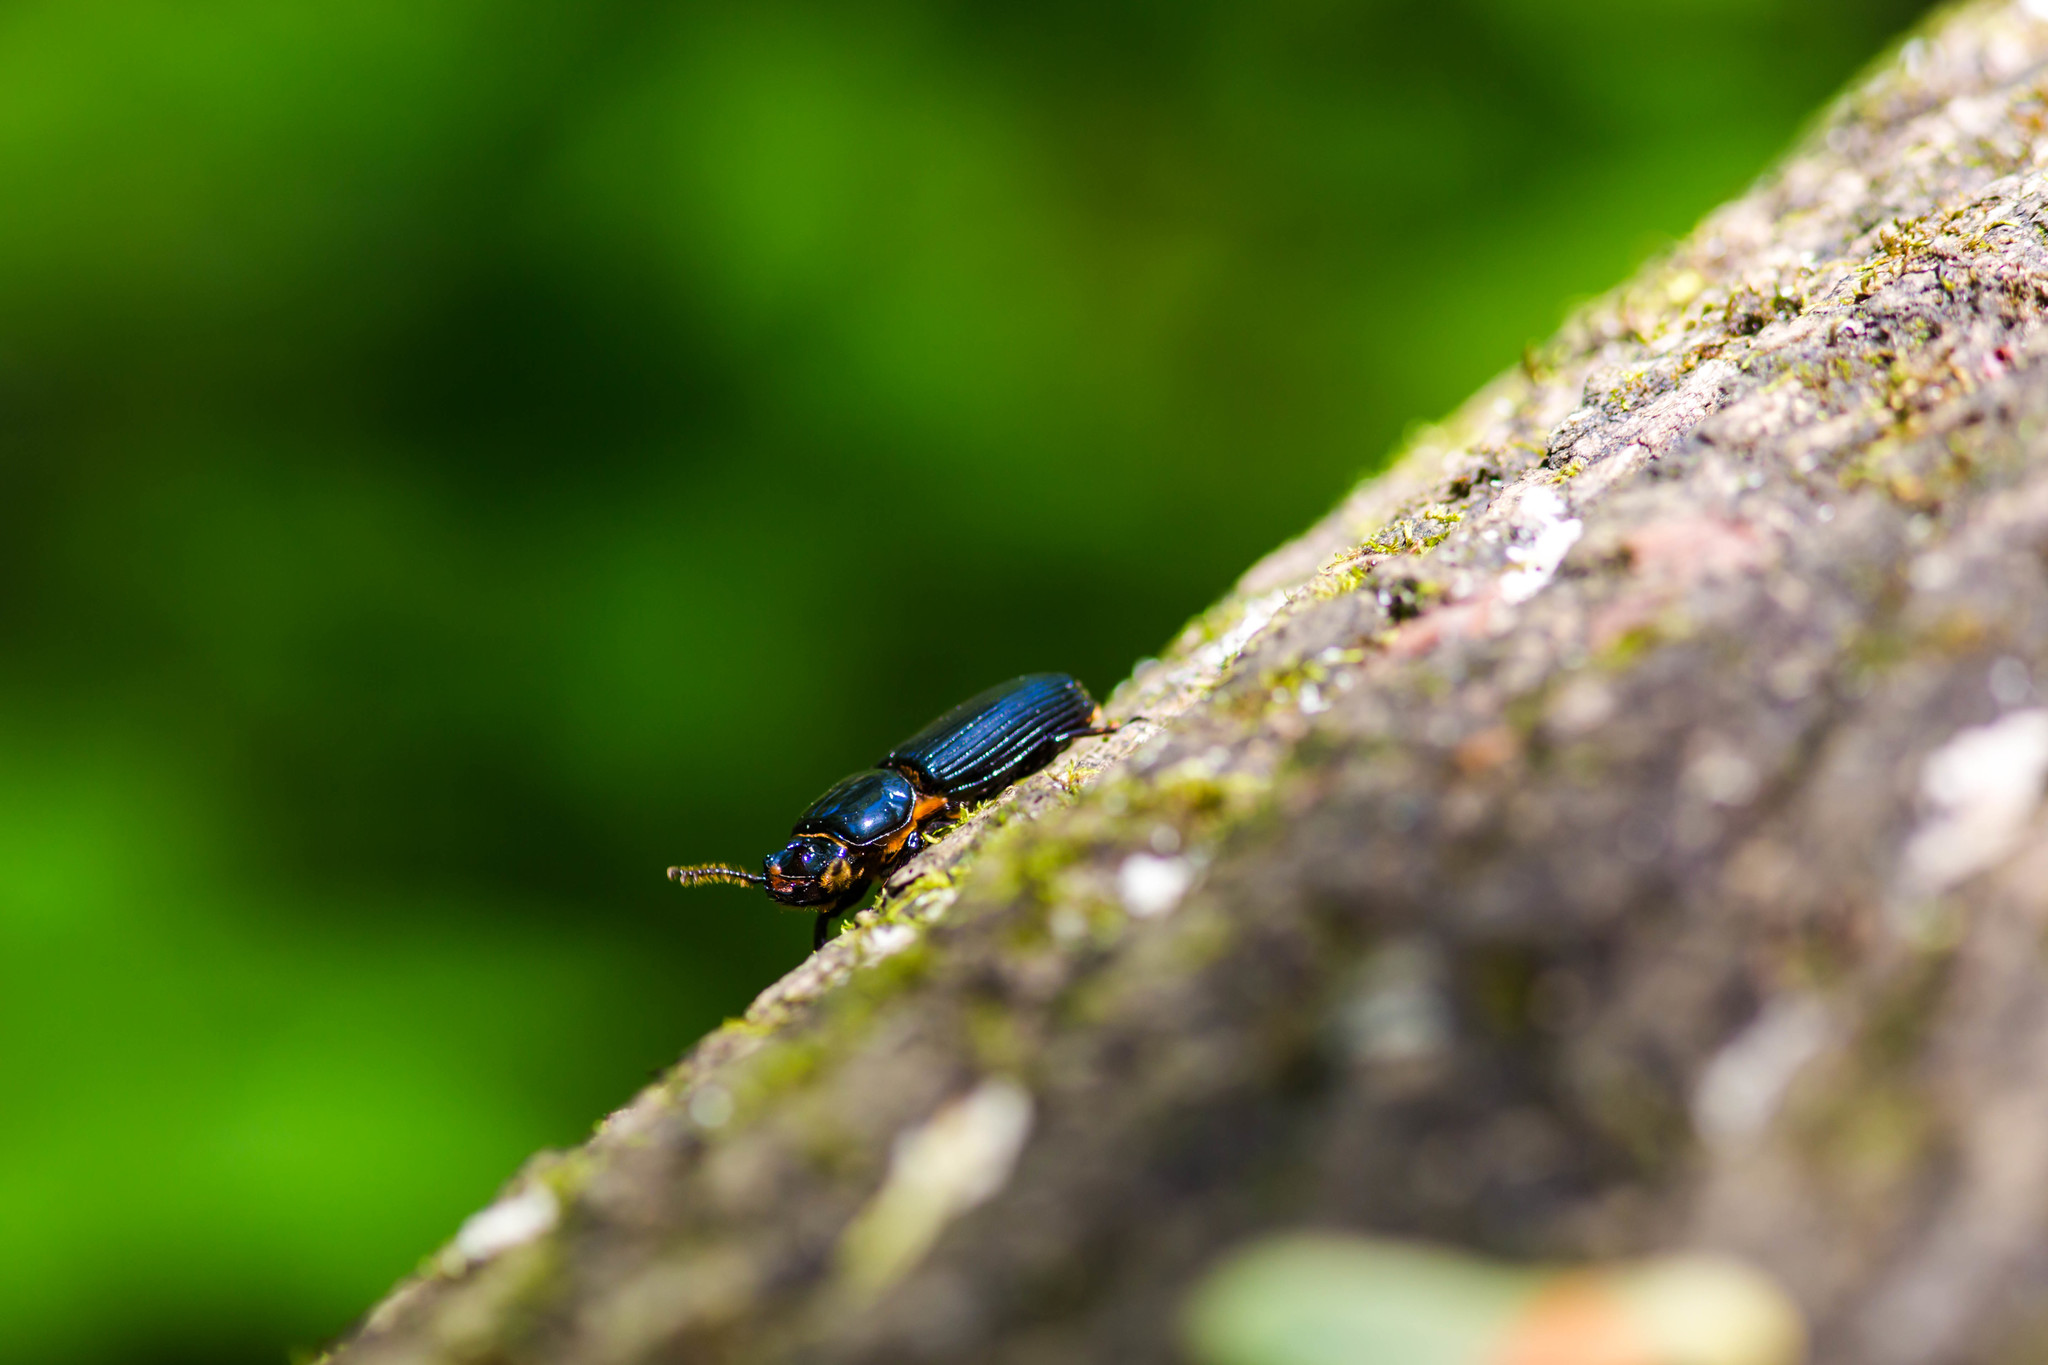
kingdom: Animalia
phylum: Arthropoda
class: Insecta
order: Coleoptera
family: Passalidae
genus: Odontotaenius
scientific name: Odontotaenius disjunctus
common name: Patent leather beetle
